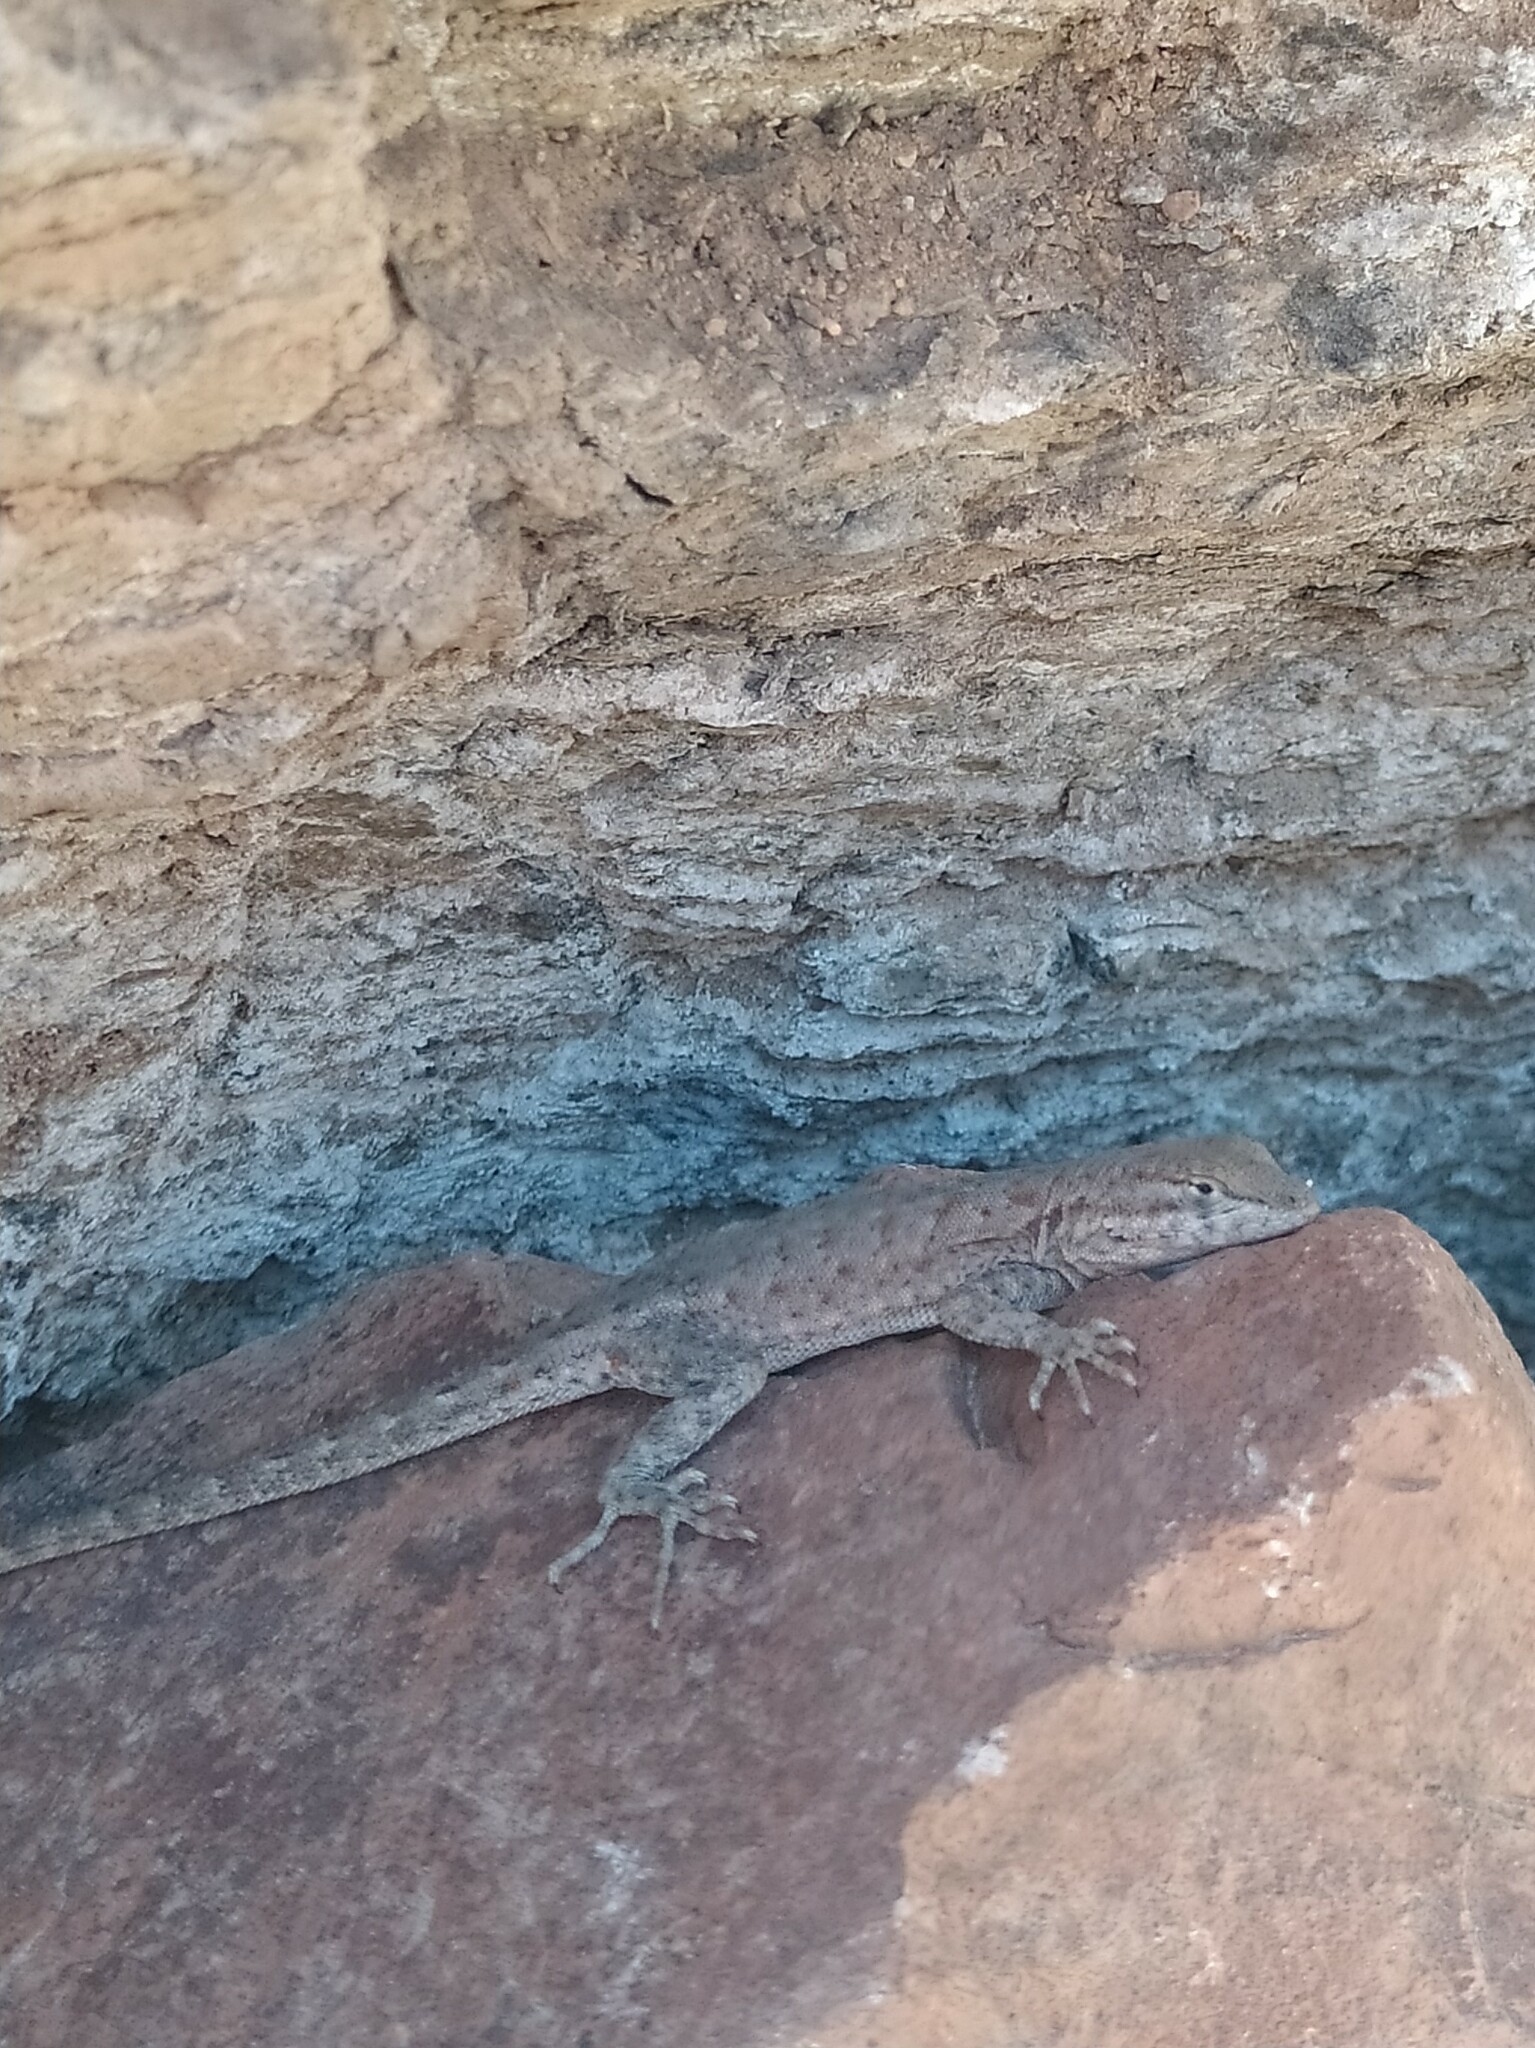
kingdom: Animalia
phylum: Chordata
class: Squamata
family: Phrynosomatidae
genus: Uta
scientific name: Uta stansburiana
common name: Side-blotched lizard
